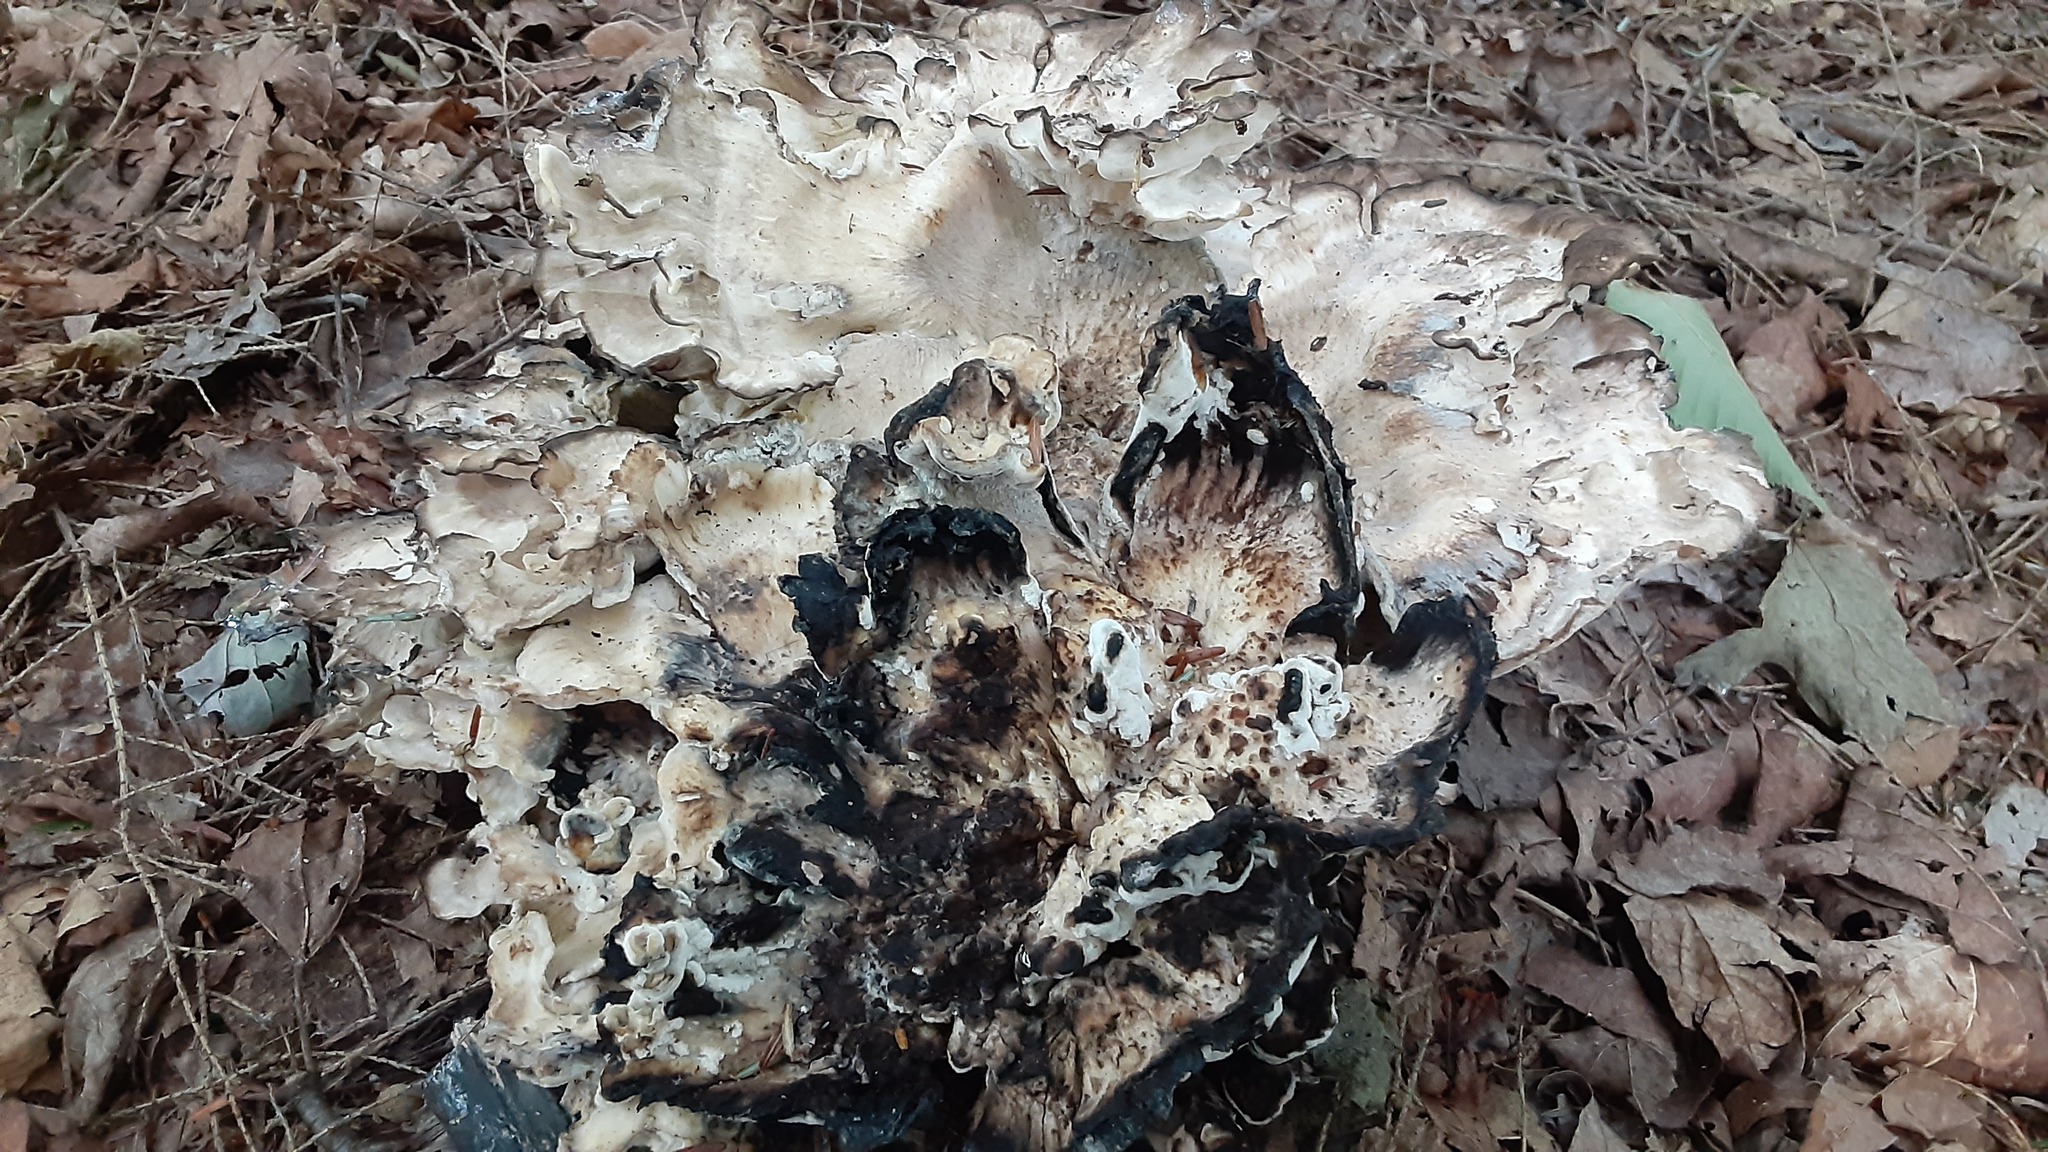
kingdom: Fungi
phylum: Basidiomycota
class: Agaricomycetes
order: Polyporales
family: Meripilaceae
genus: Meripilus
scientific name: Meripilus sumstinei
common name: Black-staining polypore
